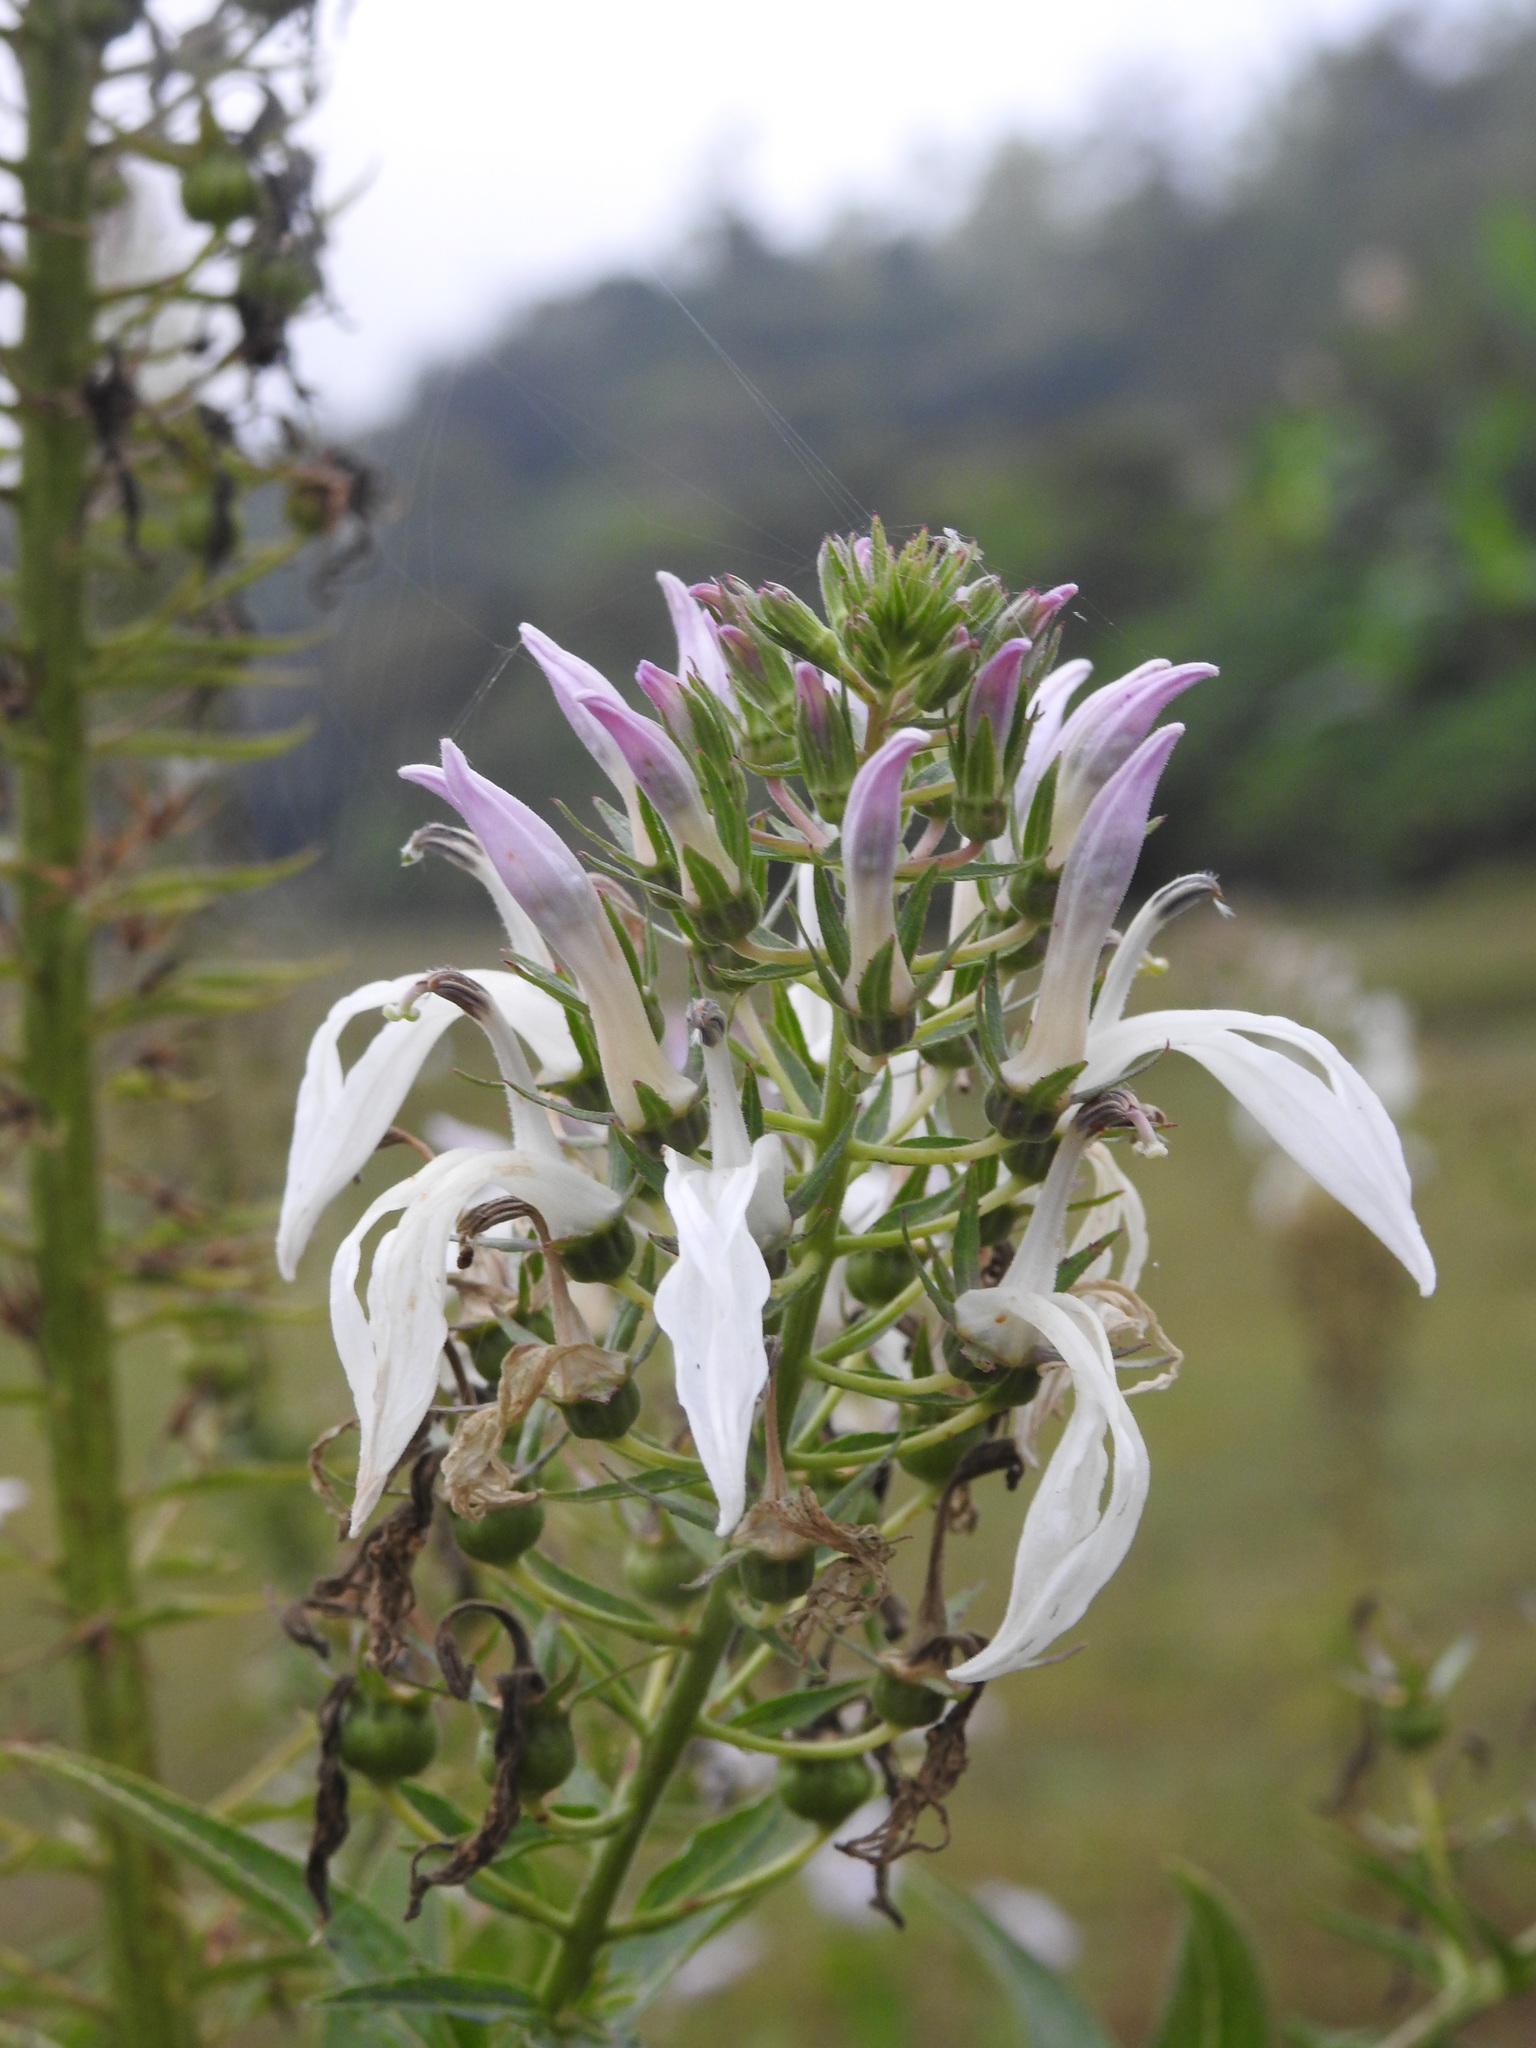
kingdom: Plantae
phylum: Tracheophyta
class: Magnoliopsida
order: Asterales
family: Campanulaceae
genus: Lobelia
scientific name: Lobelia nicotianifolia
